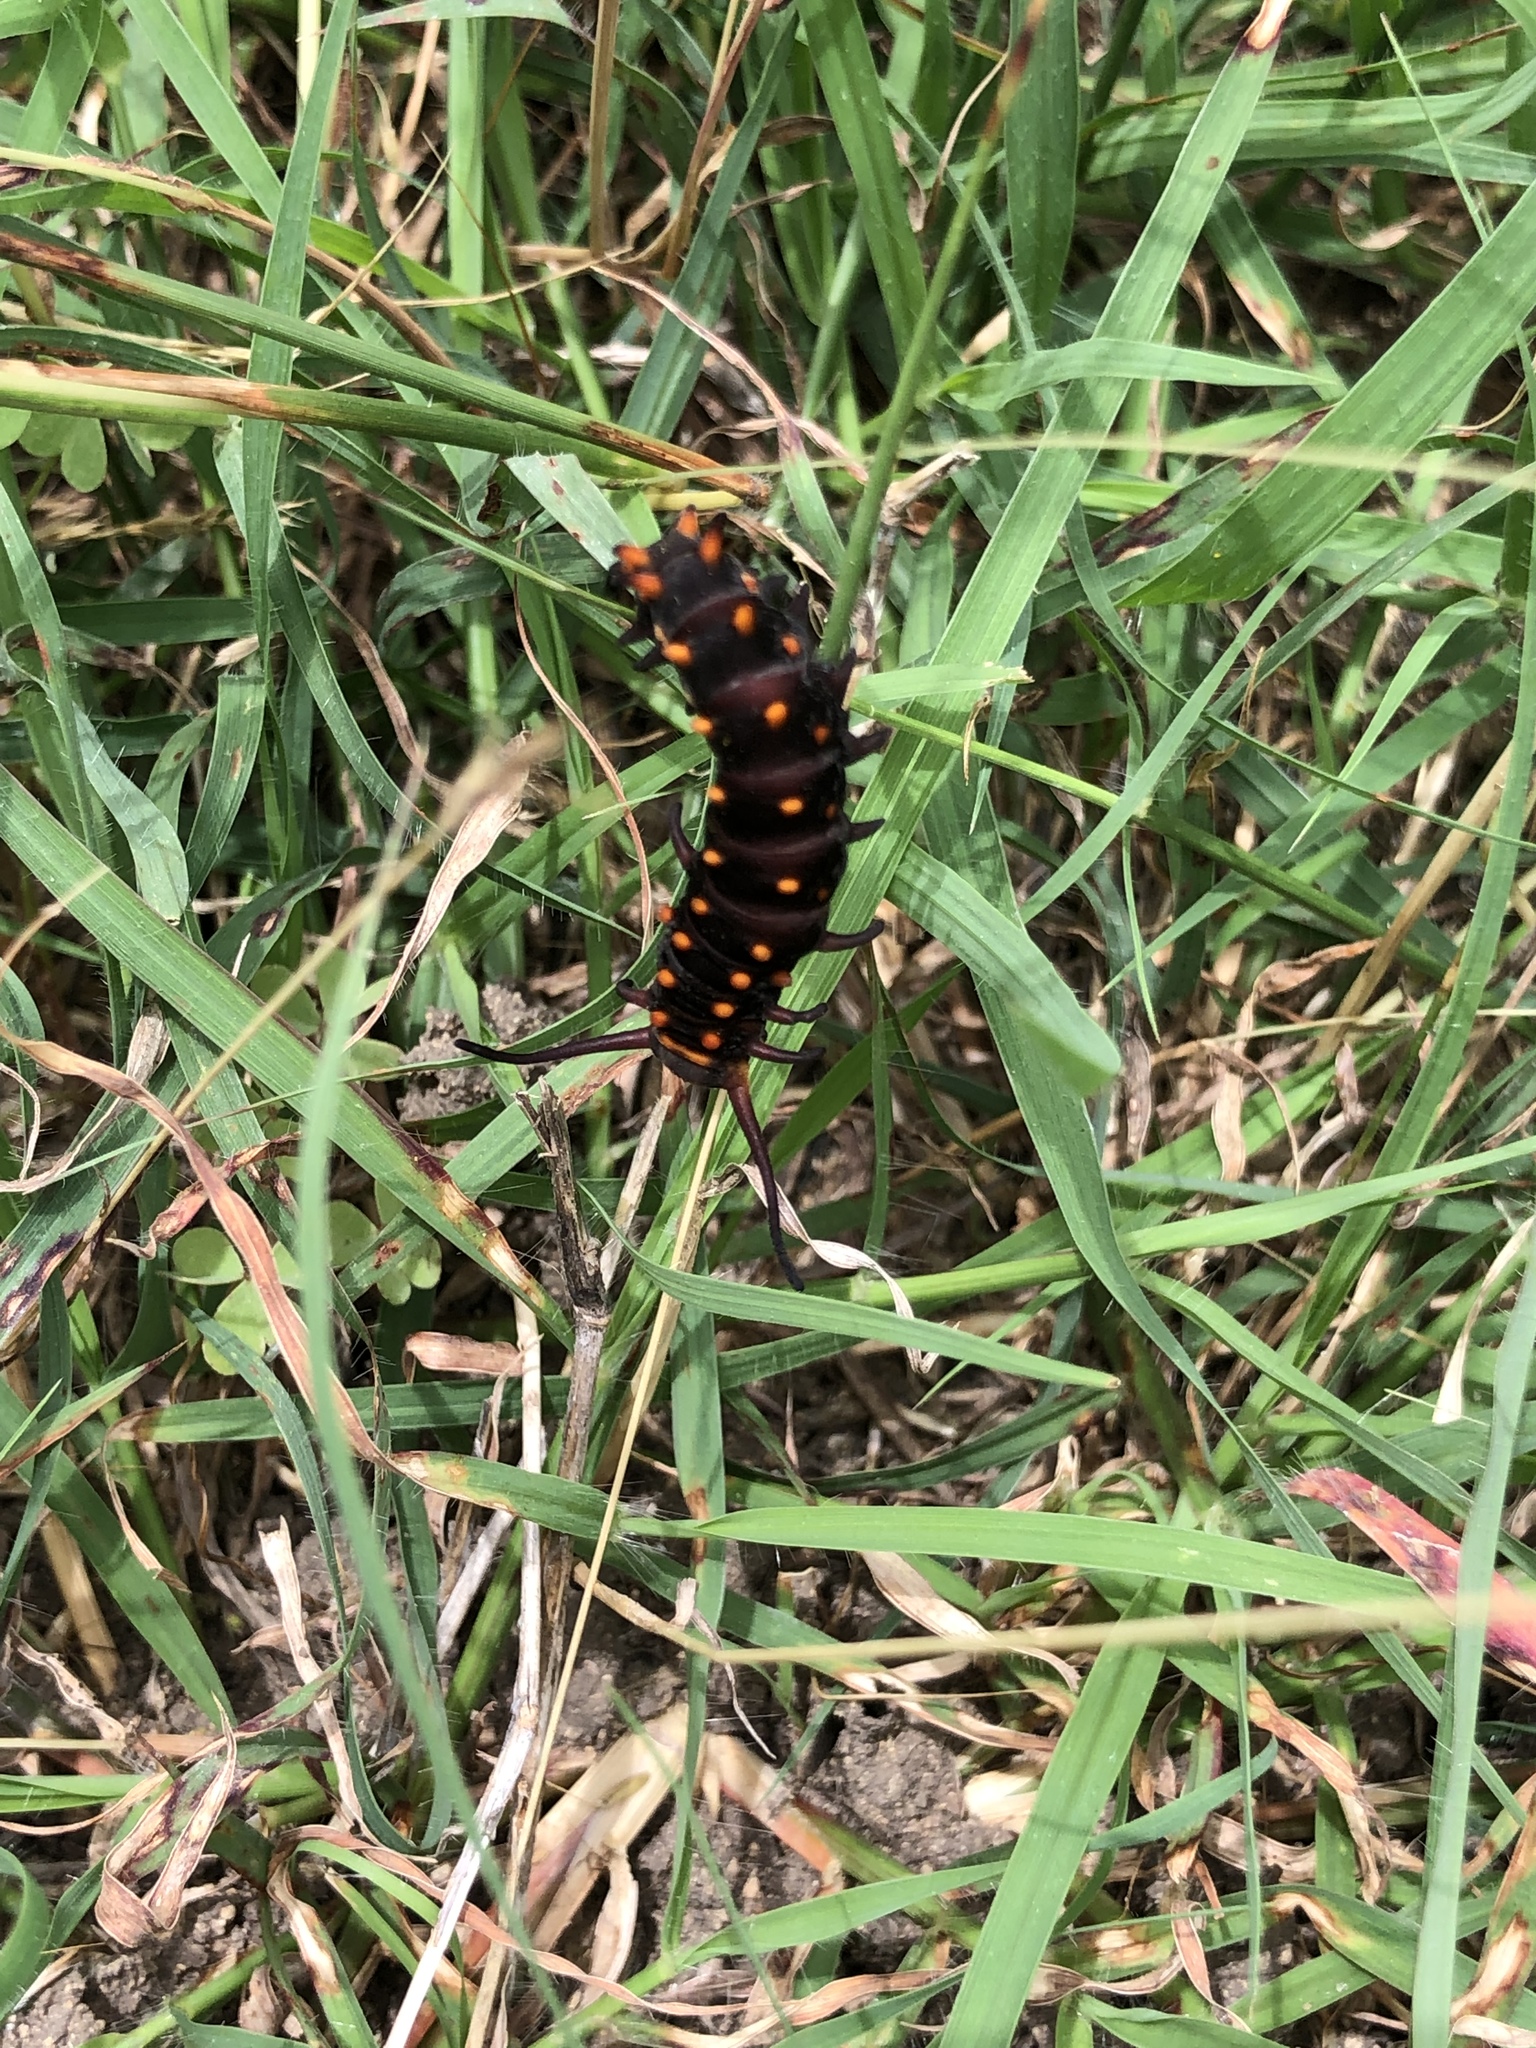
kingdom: Animalia
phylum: Arthropoda
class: Insecta
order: Lepidoptera
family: Papilionidae
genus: Battus
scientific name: Battus philenor
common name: Pipevine swallowtail
